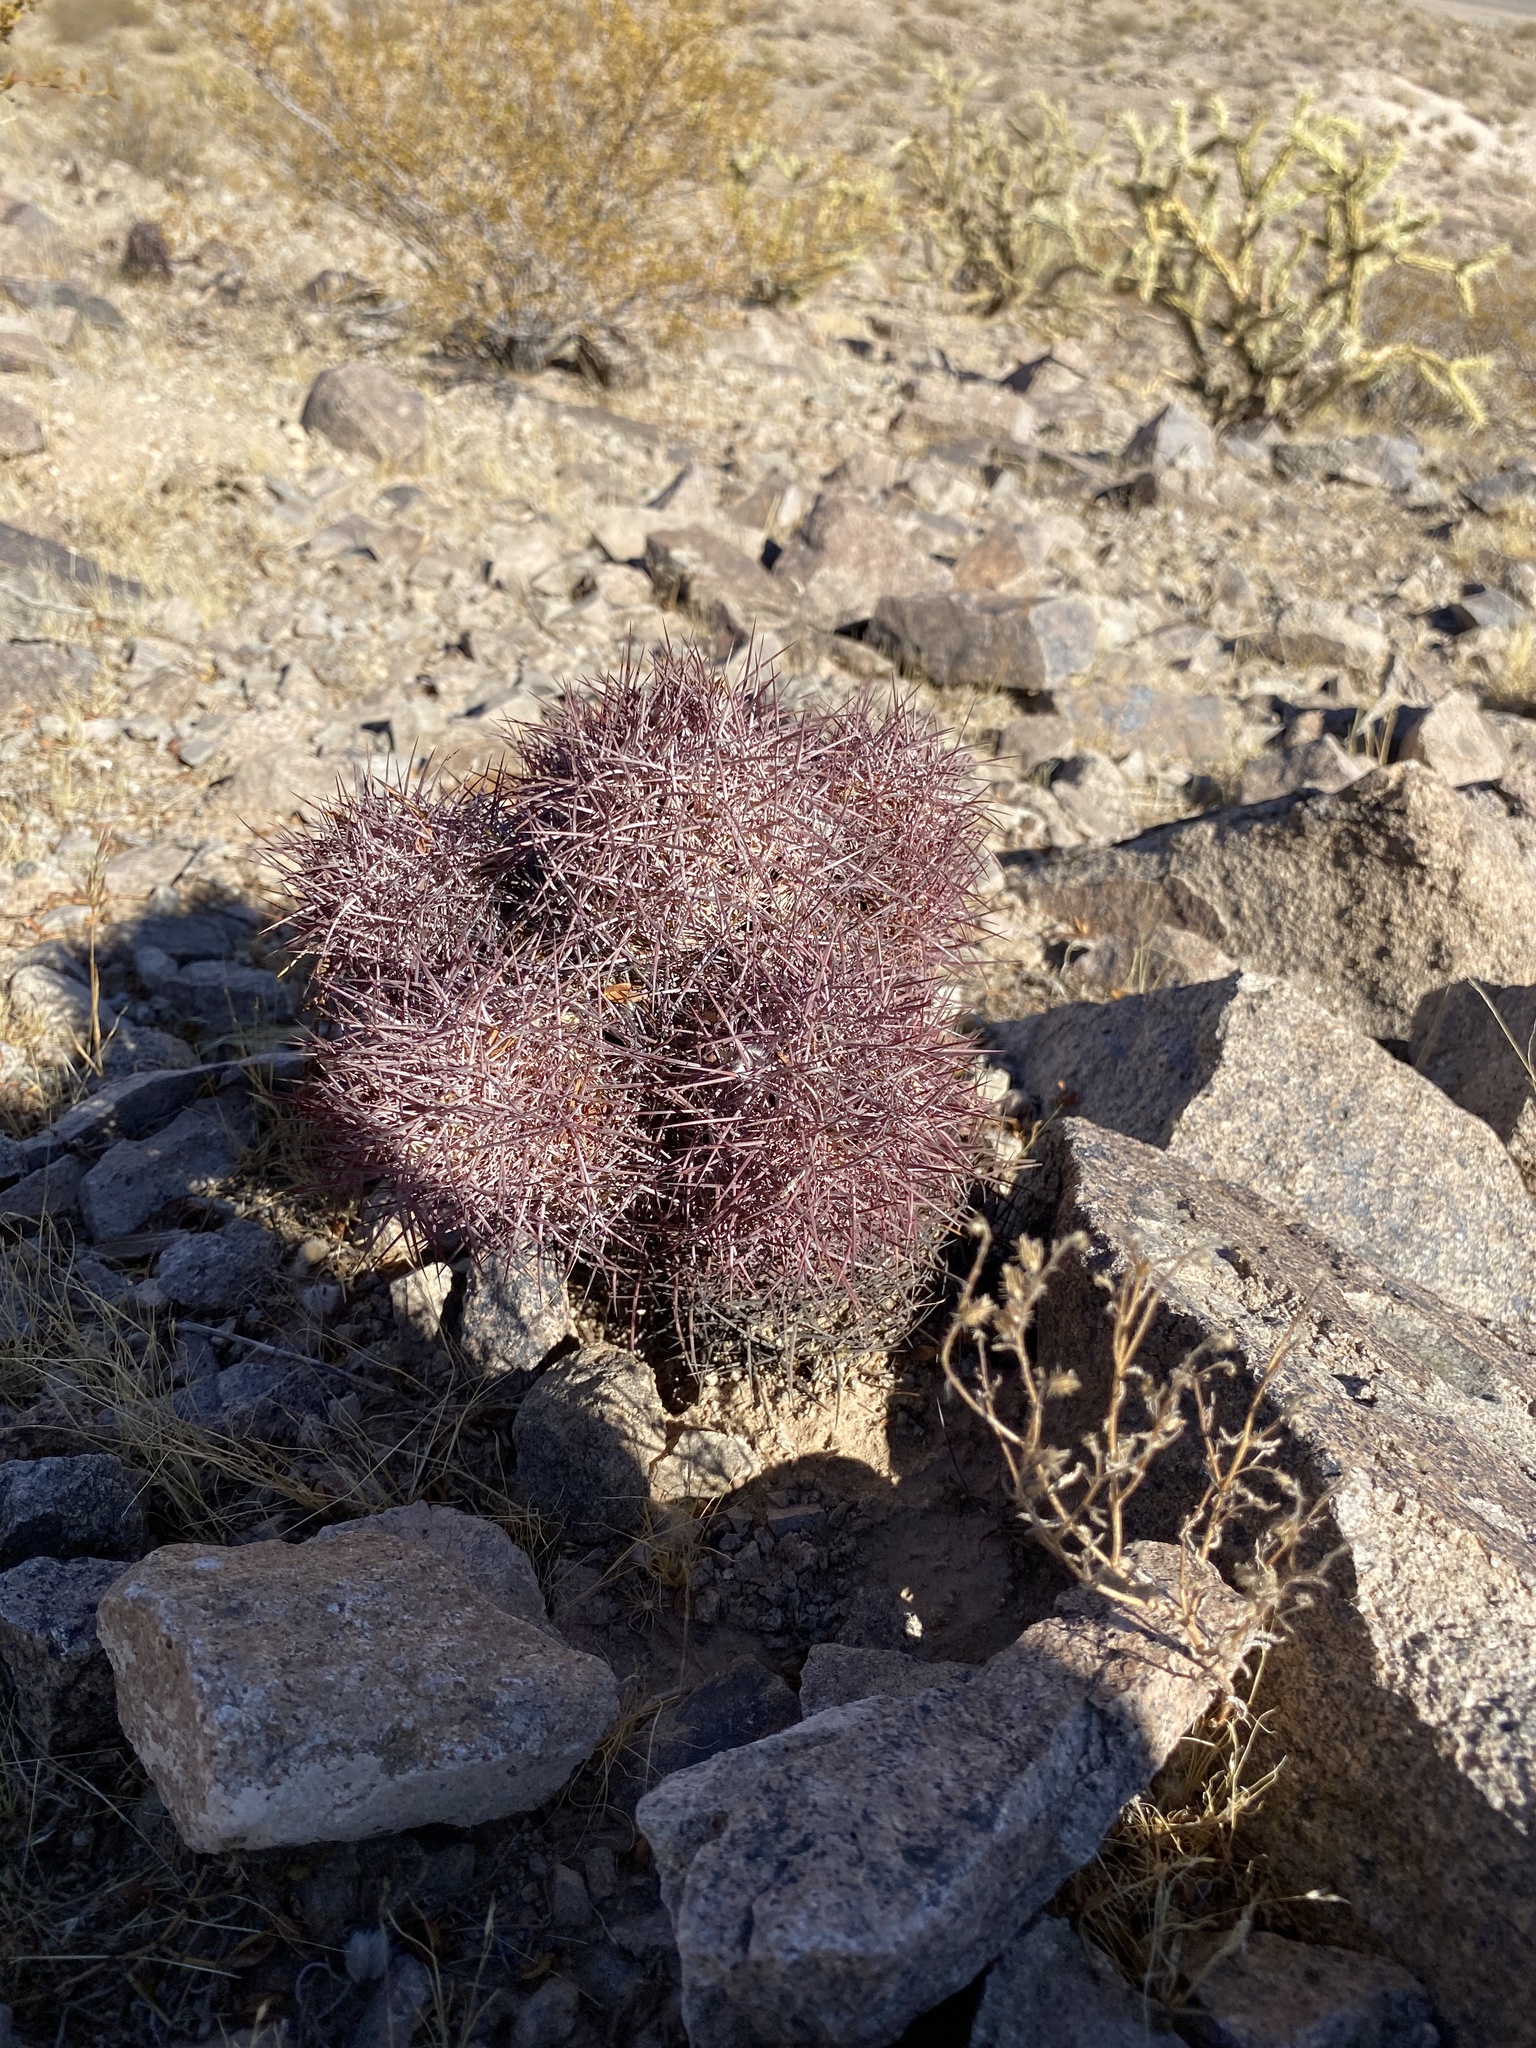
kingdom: Plantae
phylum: Tracheophyta
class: Magnoliopsida
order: Caryophyllales
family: Cactaceae
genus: Sclerocactus
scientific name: Sclerocactus johnsonii
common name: Eight-spine fishhook cactus
